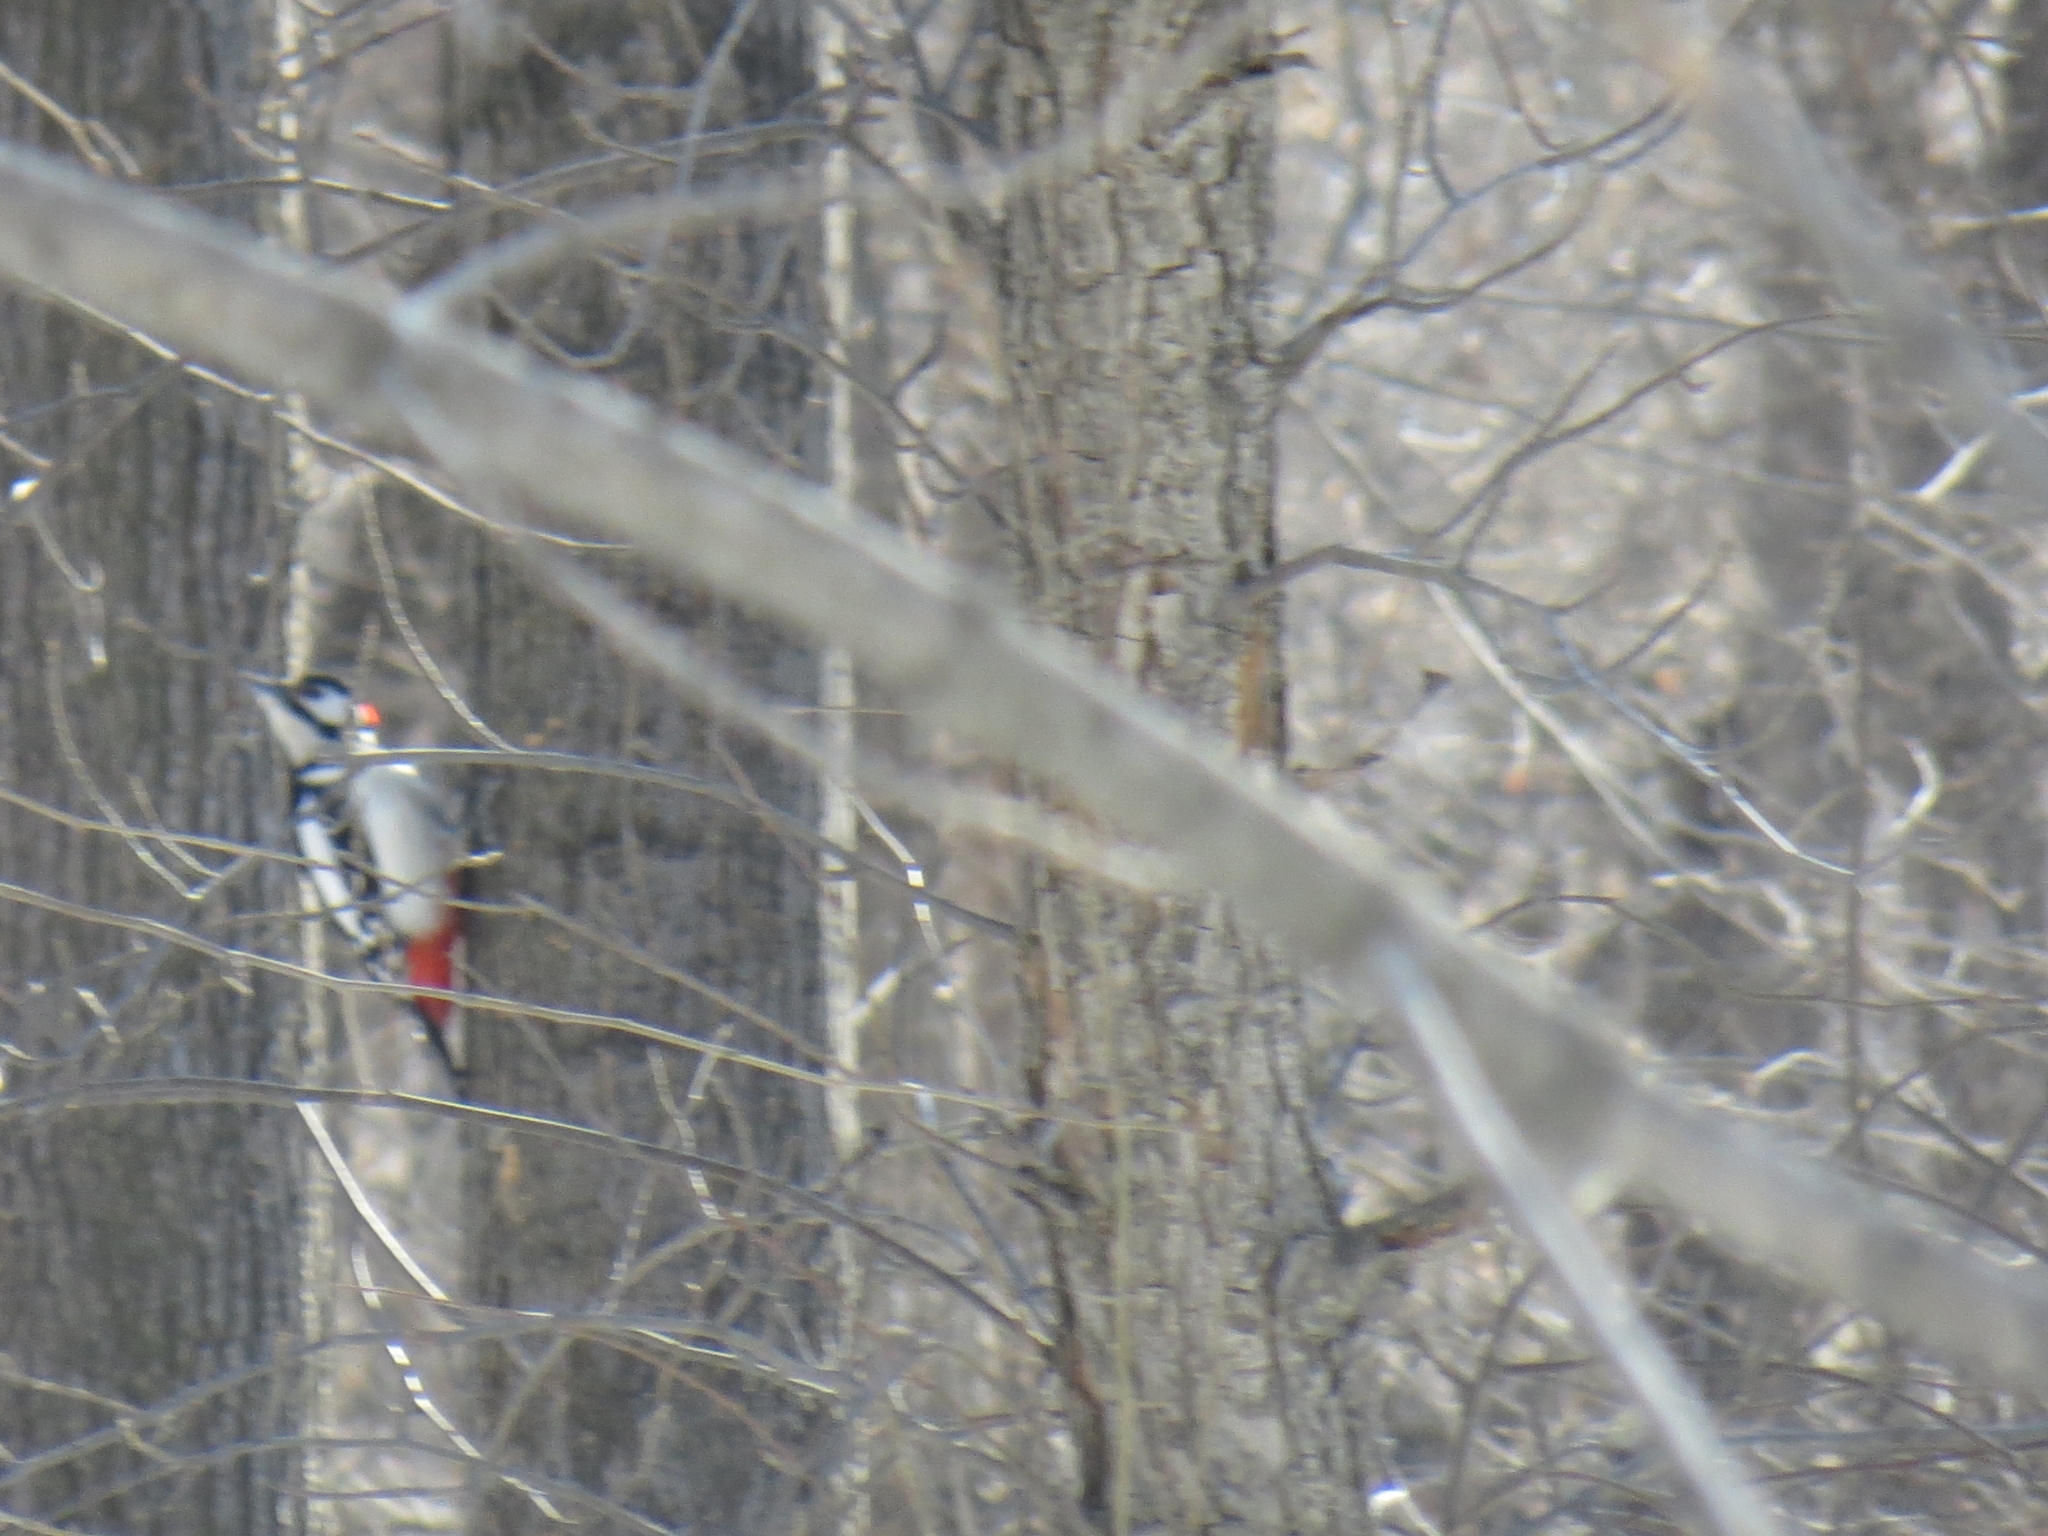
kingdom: Animalia
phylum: Chordata
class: Aves
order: Piciformes
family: Picidae
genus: Dendrocopos
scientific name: Dendrocopos major
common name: Great spotted woodpecker
